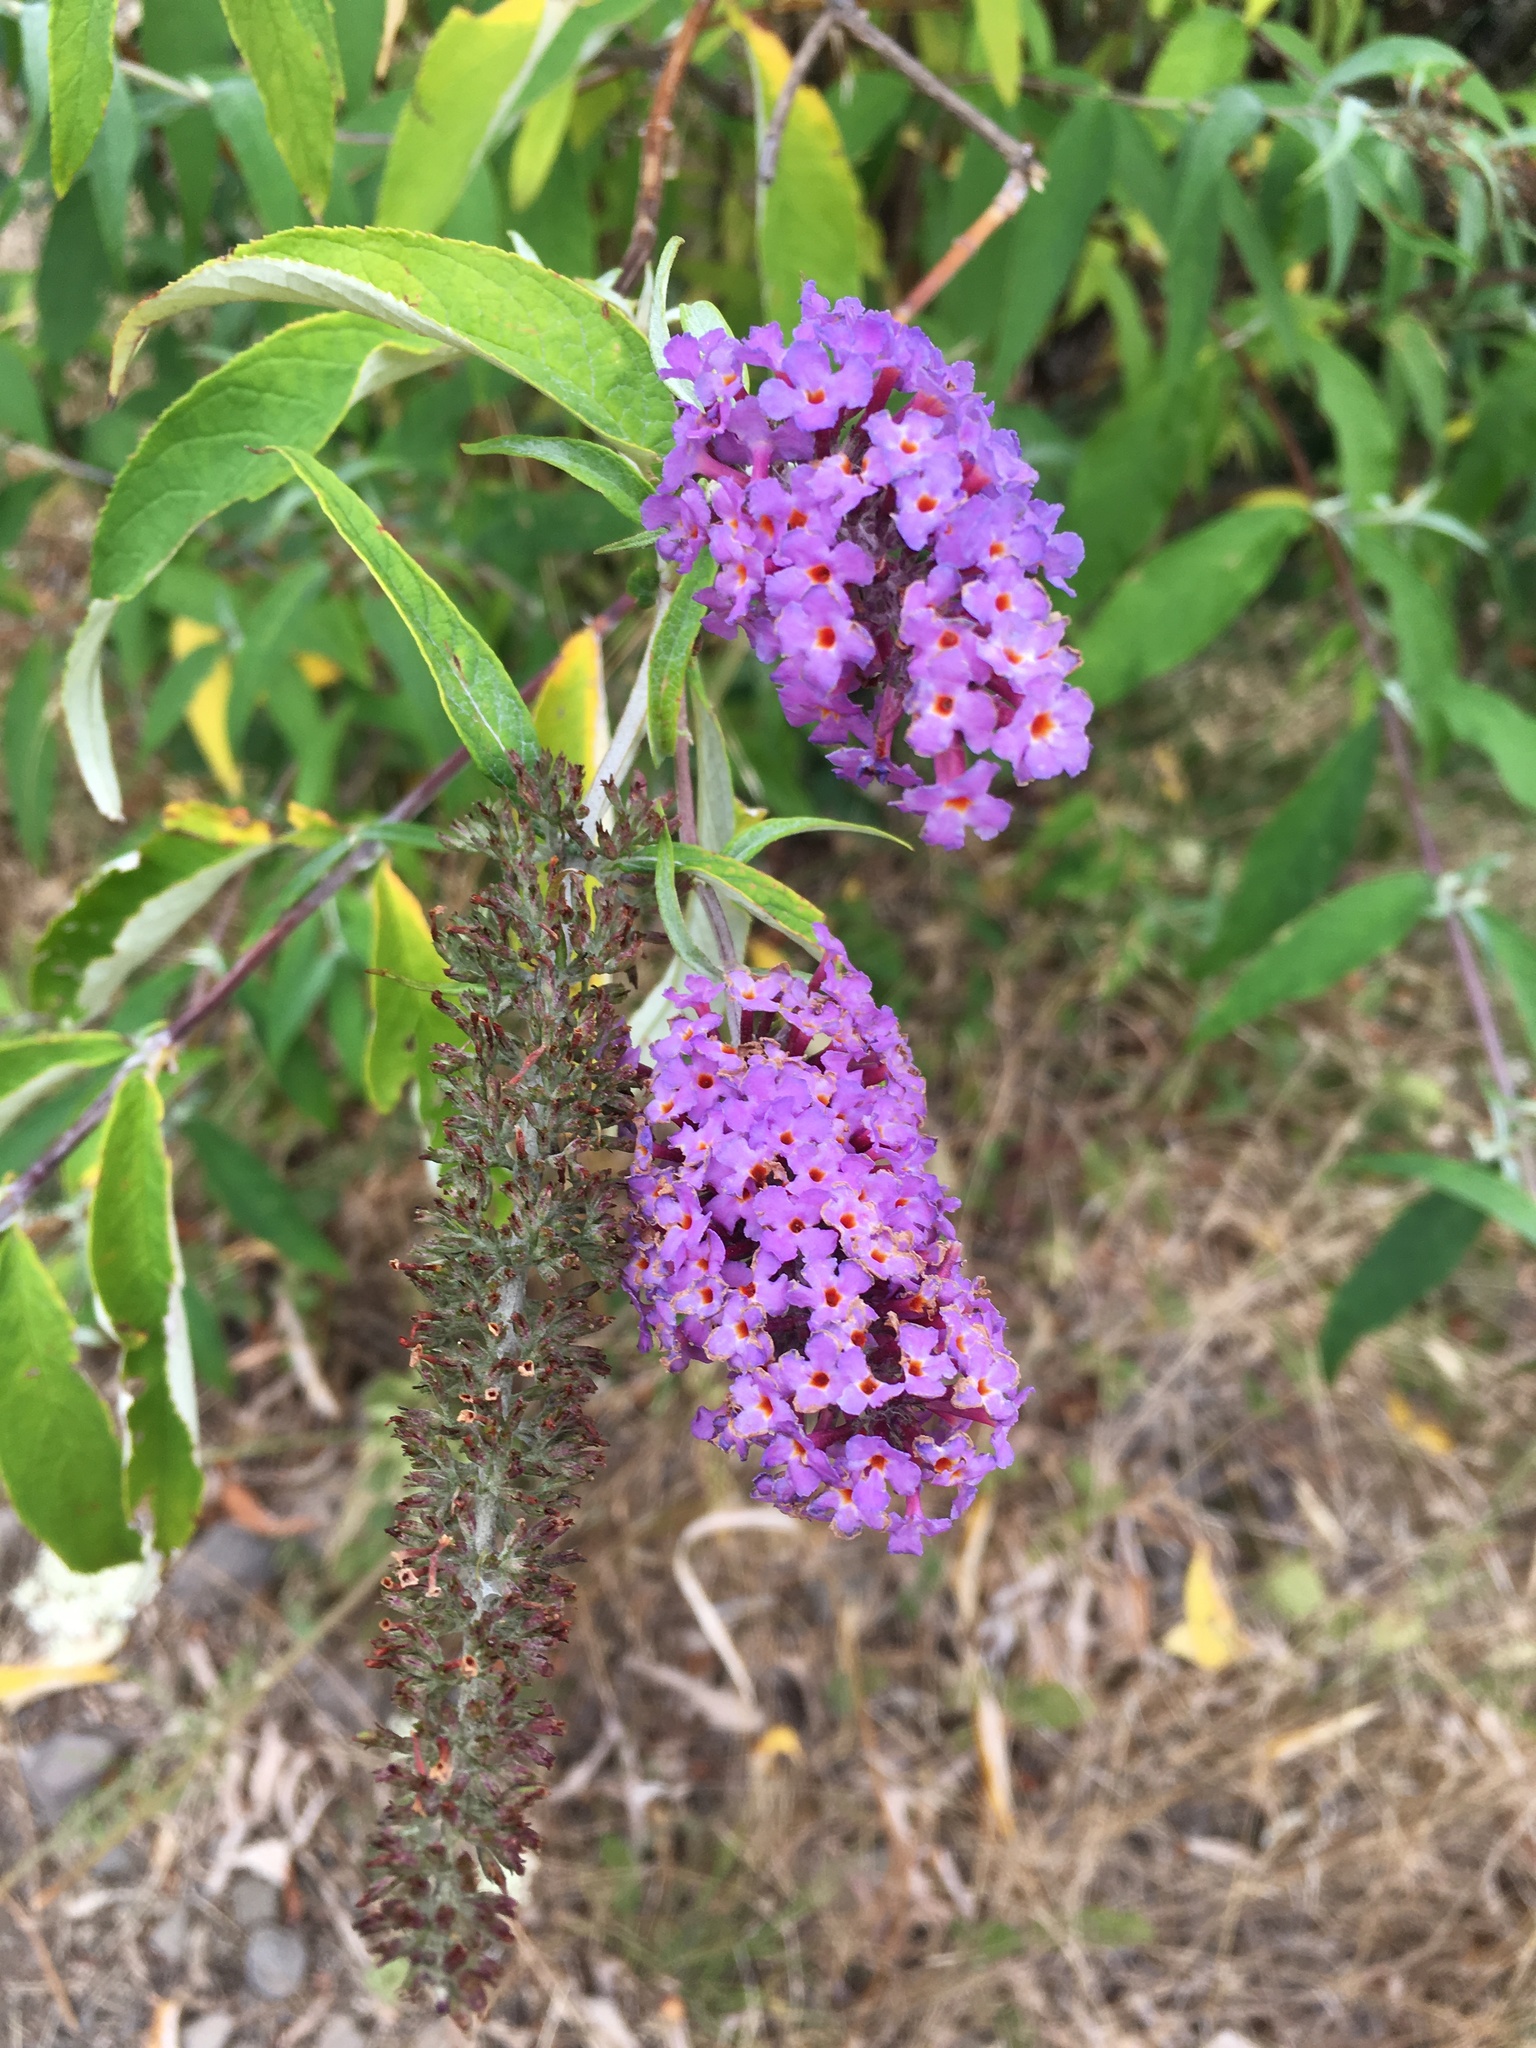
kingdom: Plantae
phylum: Tracheophyta
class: Magnoliopsida
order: Lamiales
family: Scrophulariaceae
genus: Buddleja
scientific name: Buddleja davidii
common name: Butterfly-bush
